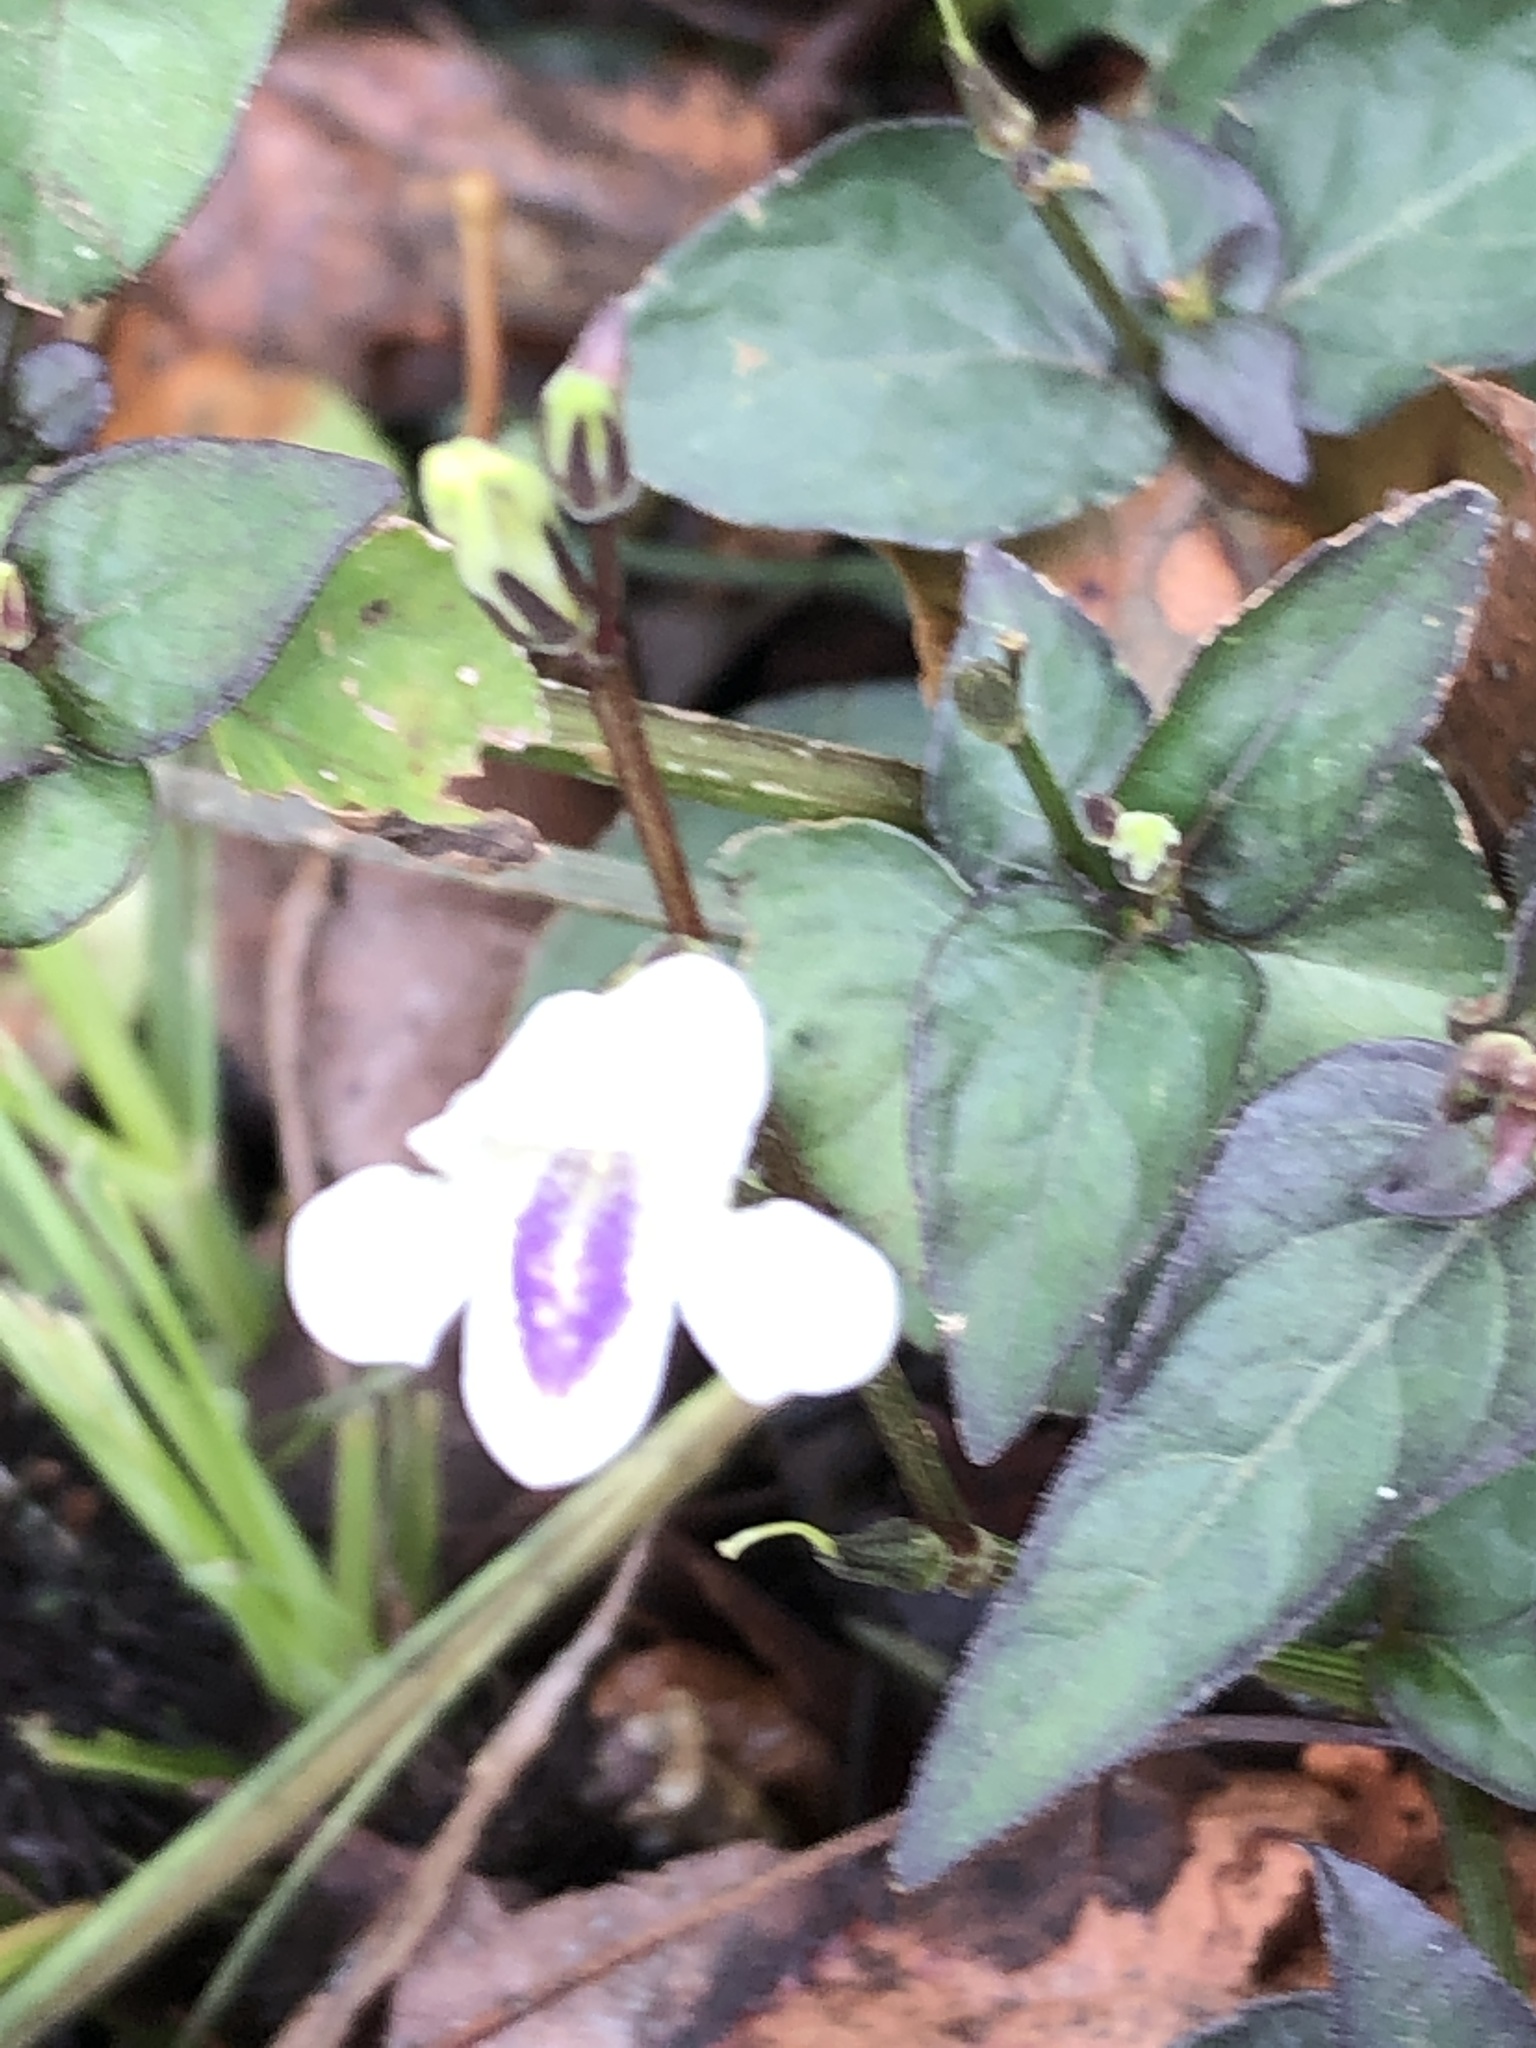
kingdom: Plantae
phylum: Tracheophyta
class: Magnoliopsida
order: Lamiales
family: Acanthaceae
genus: Asystasia
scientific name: Asystasia intrusa
